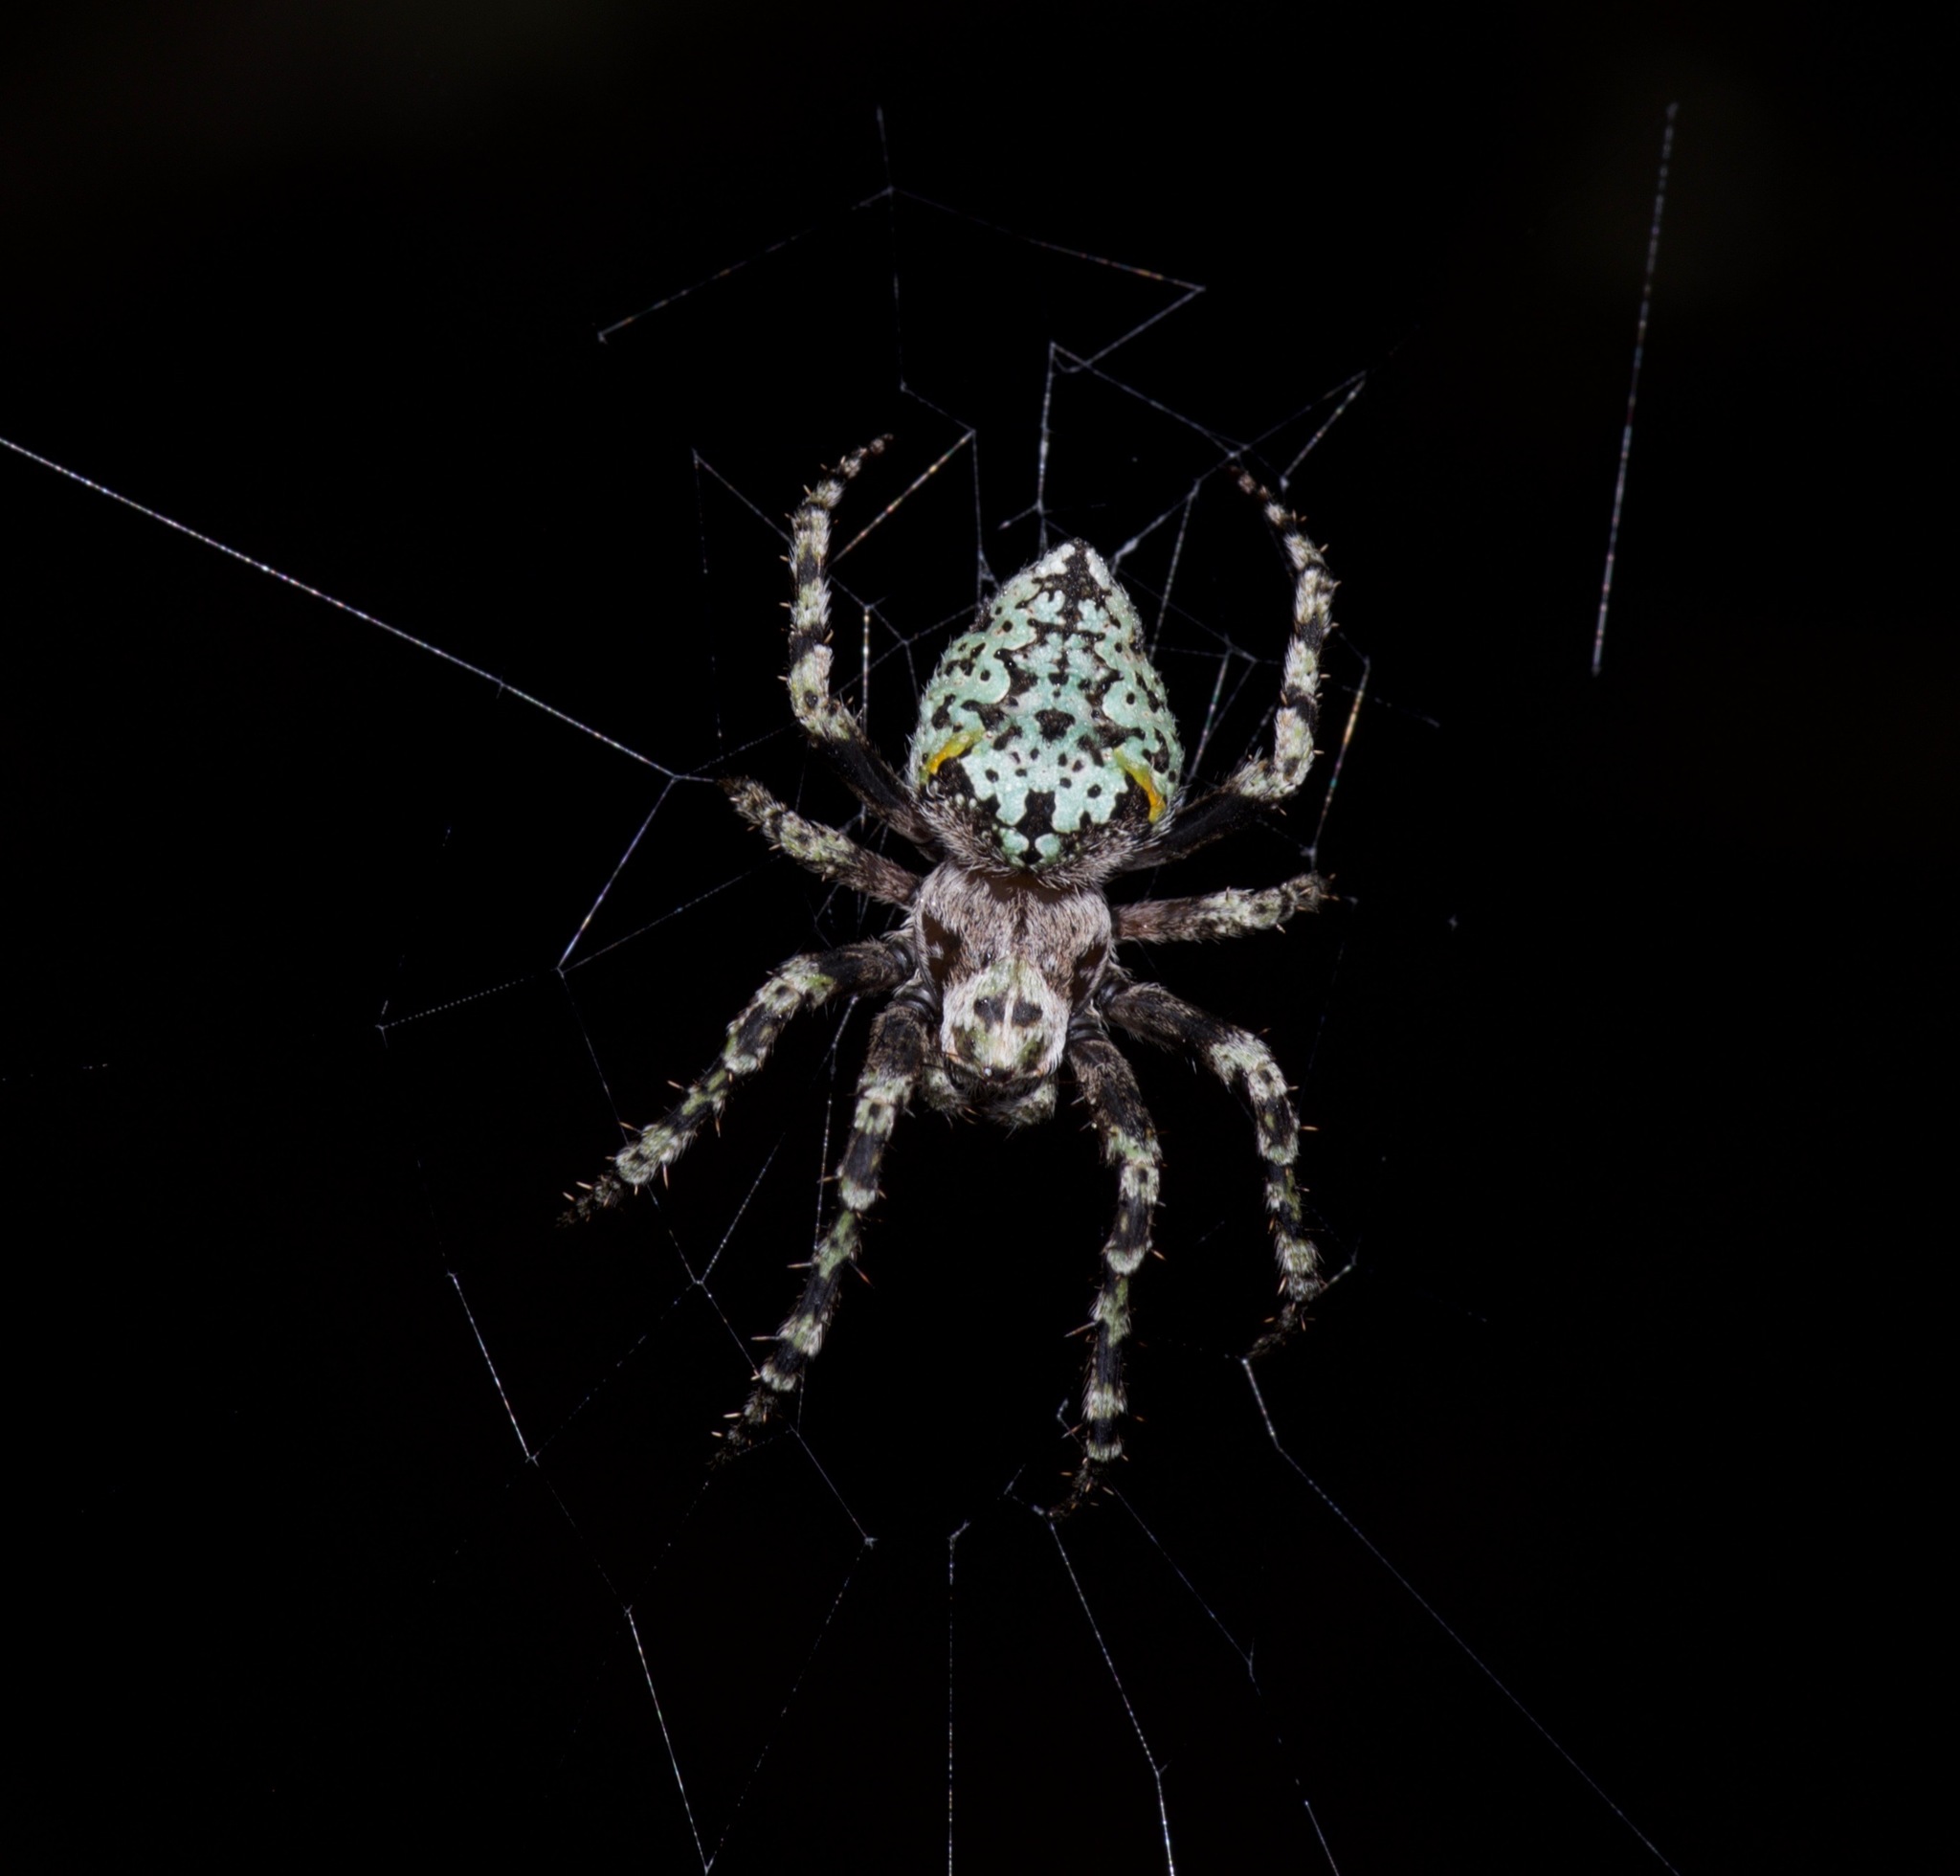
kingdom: Animalia
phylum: Arthropoda
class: Arachnida
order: Araneae
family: Araneidae
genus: Eustala
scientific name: Eustala anastera
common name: Orb weavers
